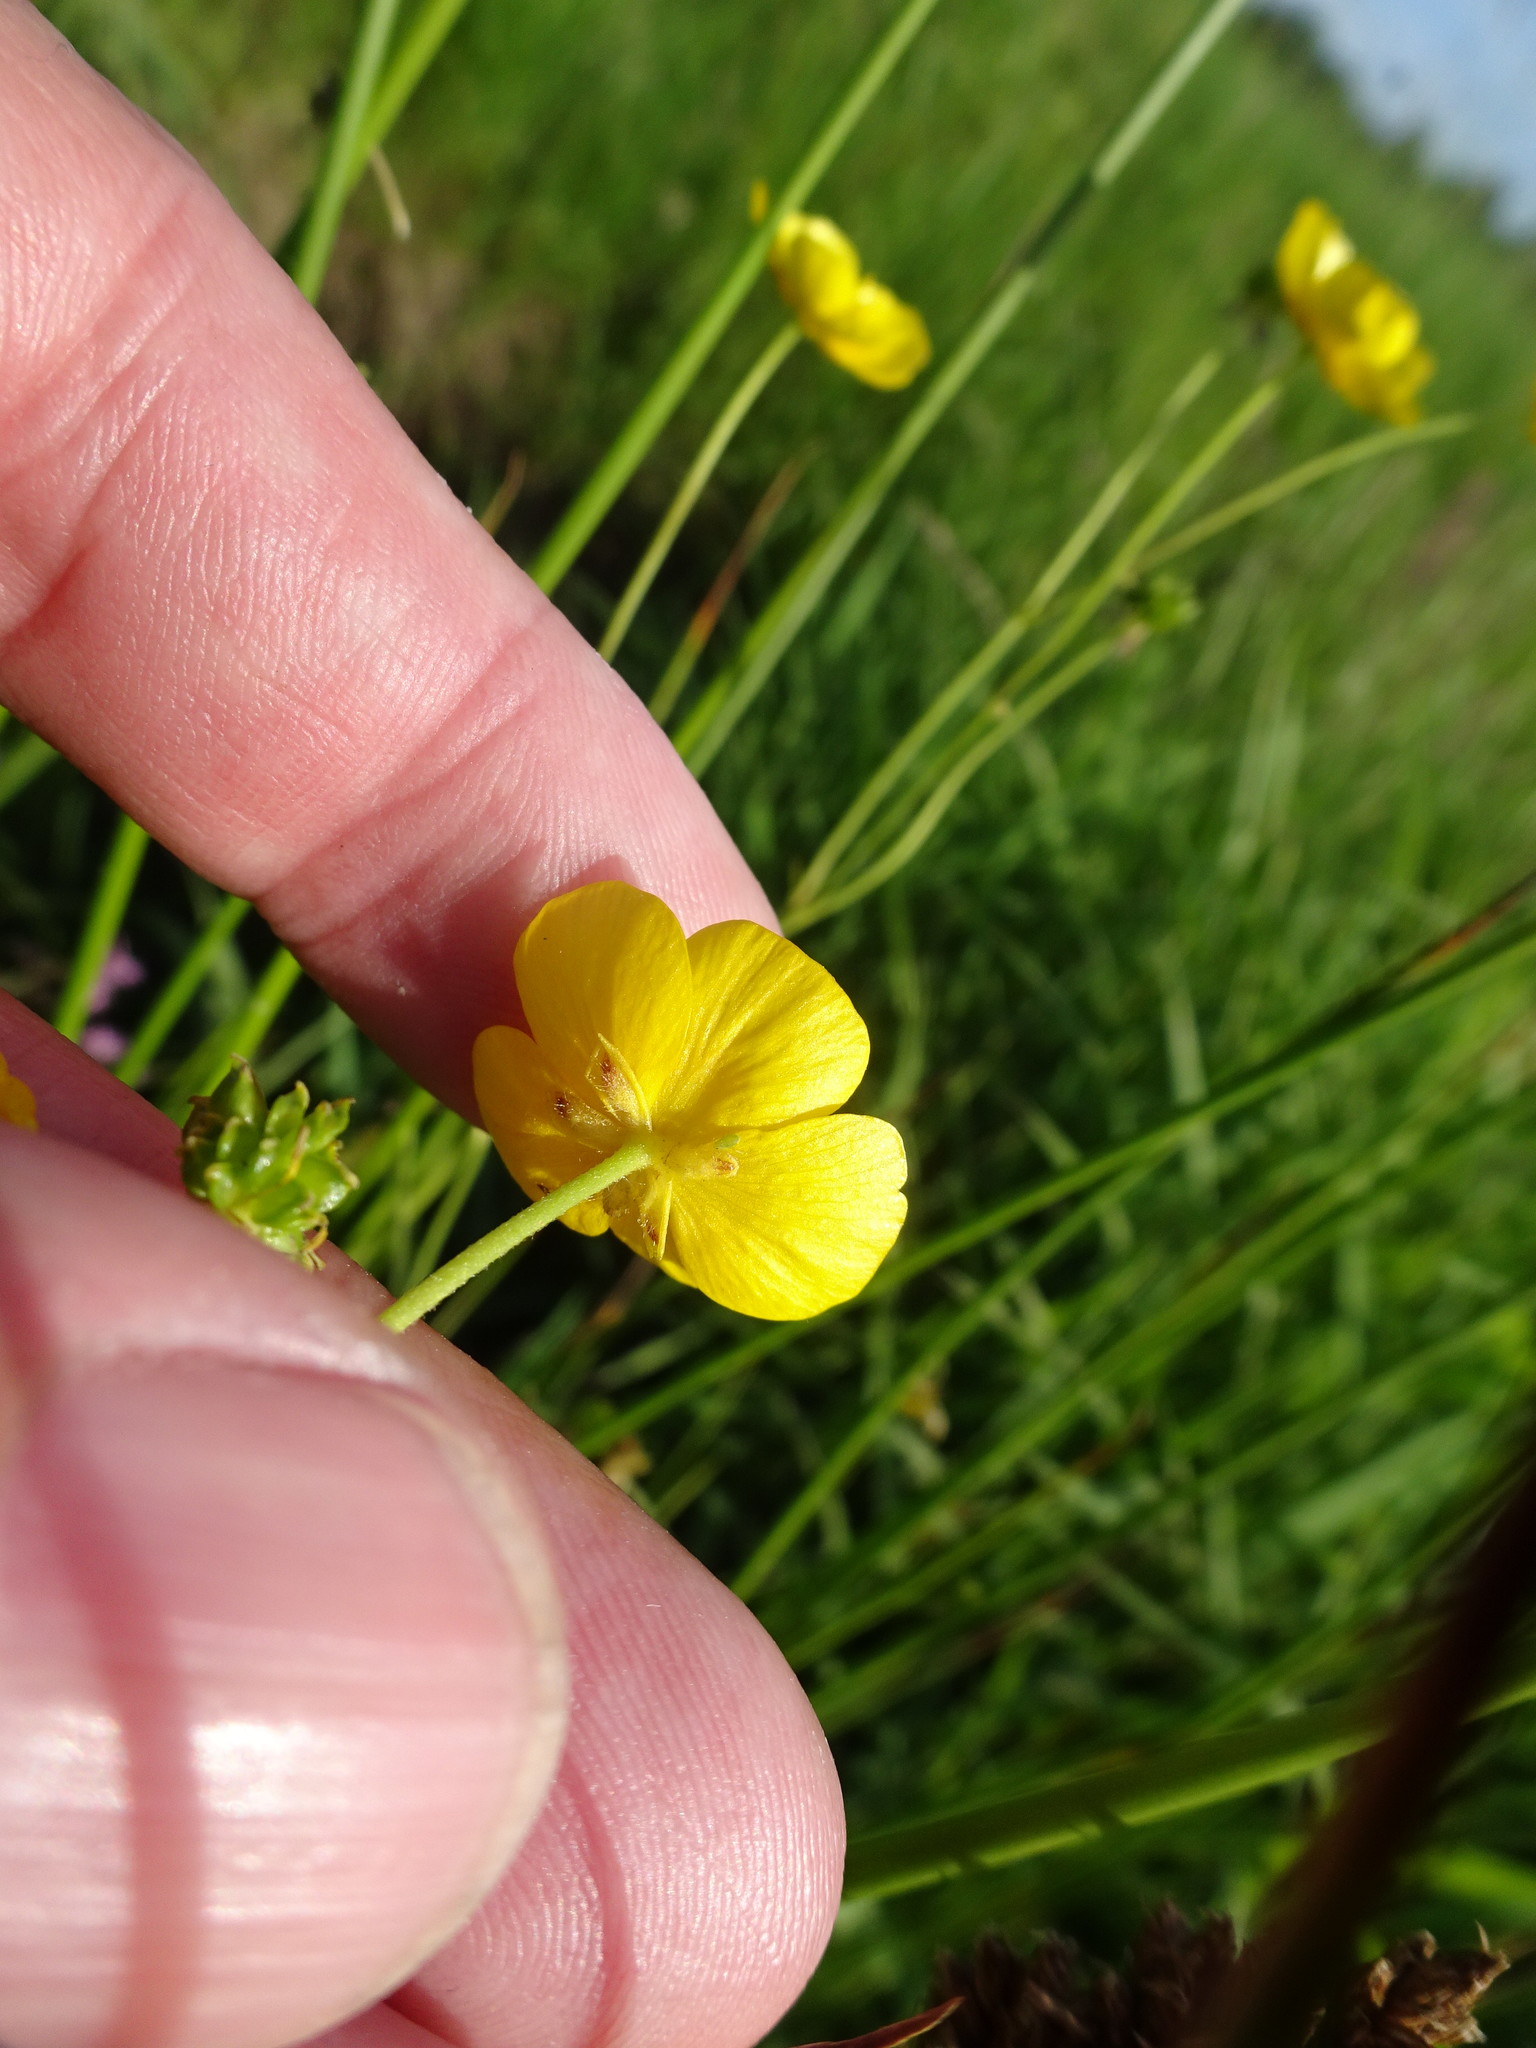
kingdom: Plantae
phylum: Tracheophyta
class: Magnoliopsida
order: Ranunculales
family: Ranunculaceae
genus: Ranunculus
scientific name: Ranunculus acris
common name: Meadow buttercup
